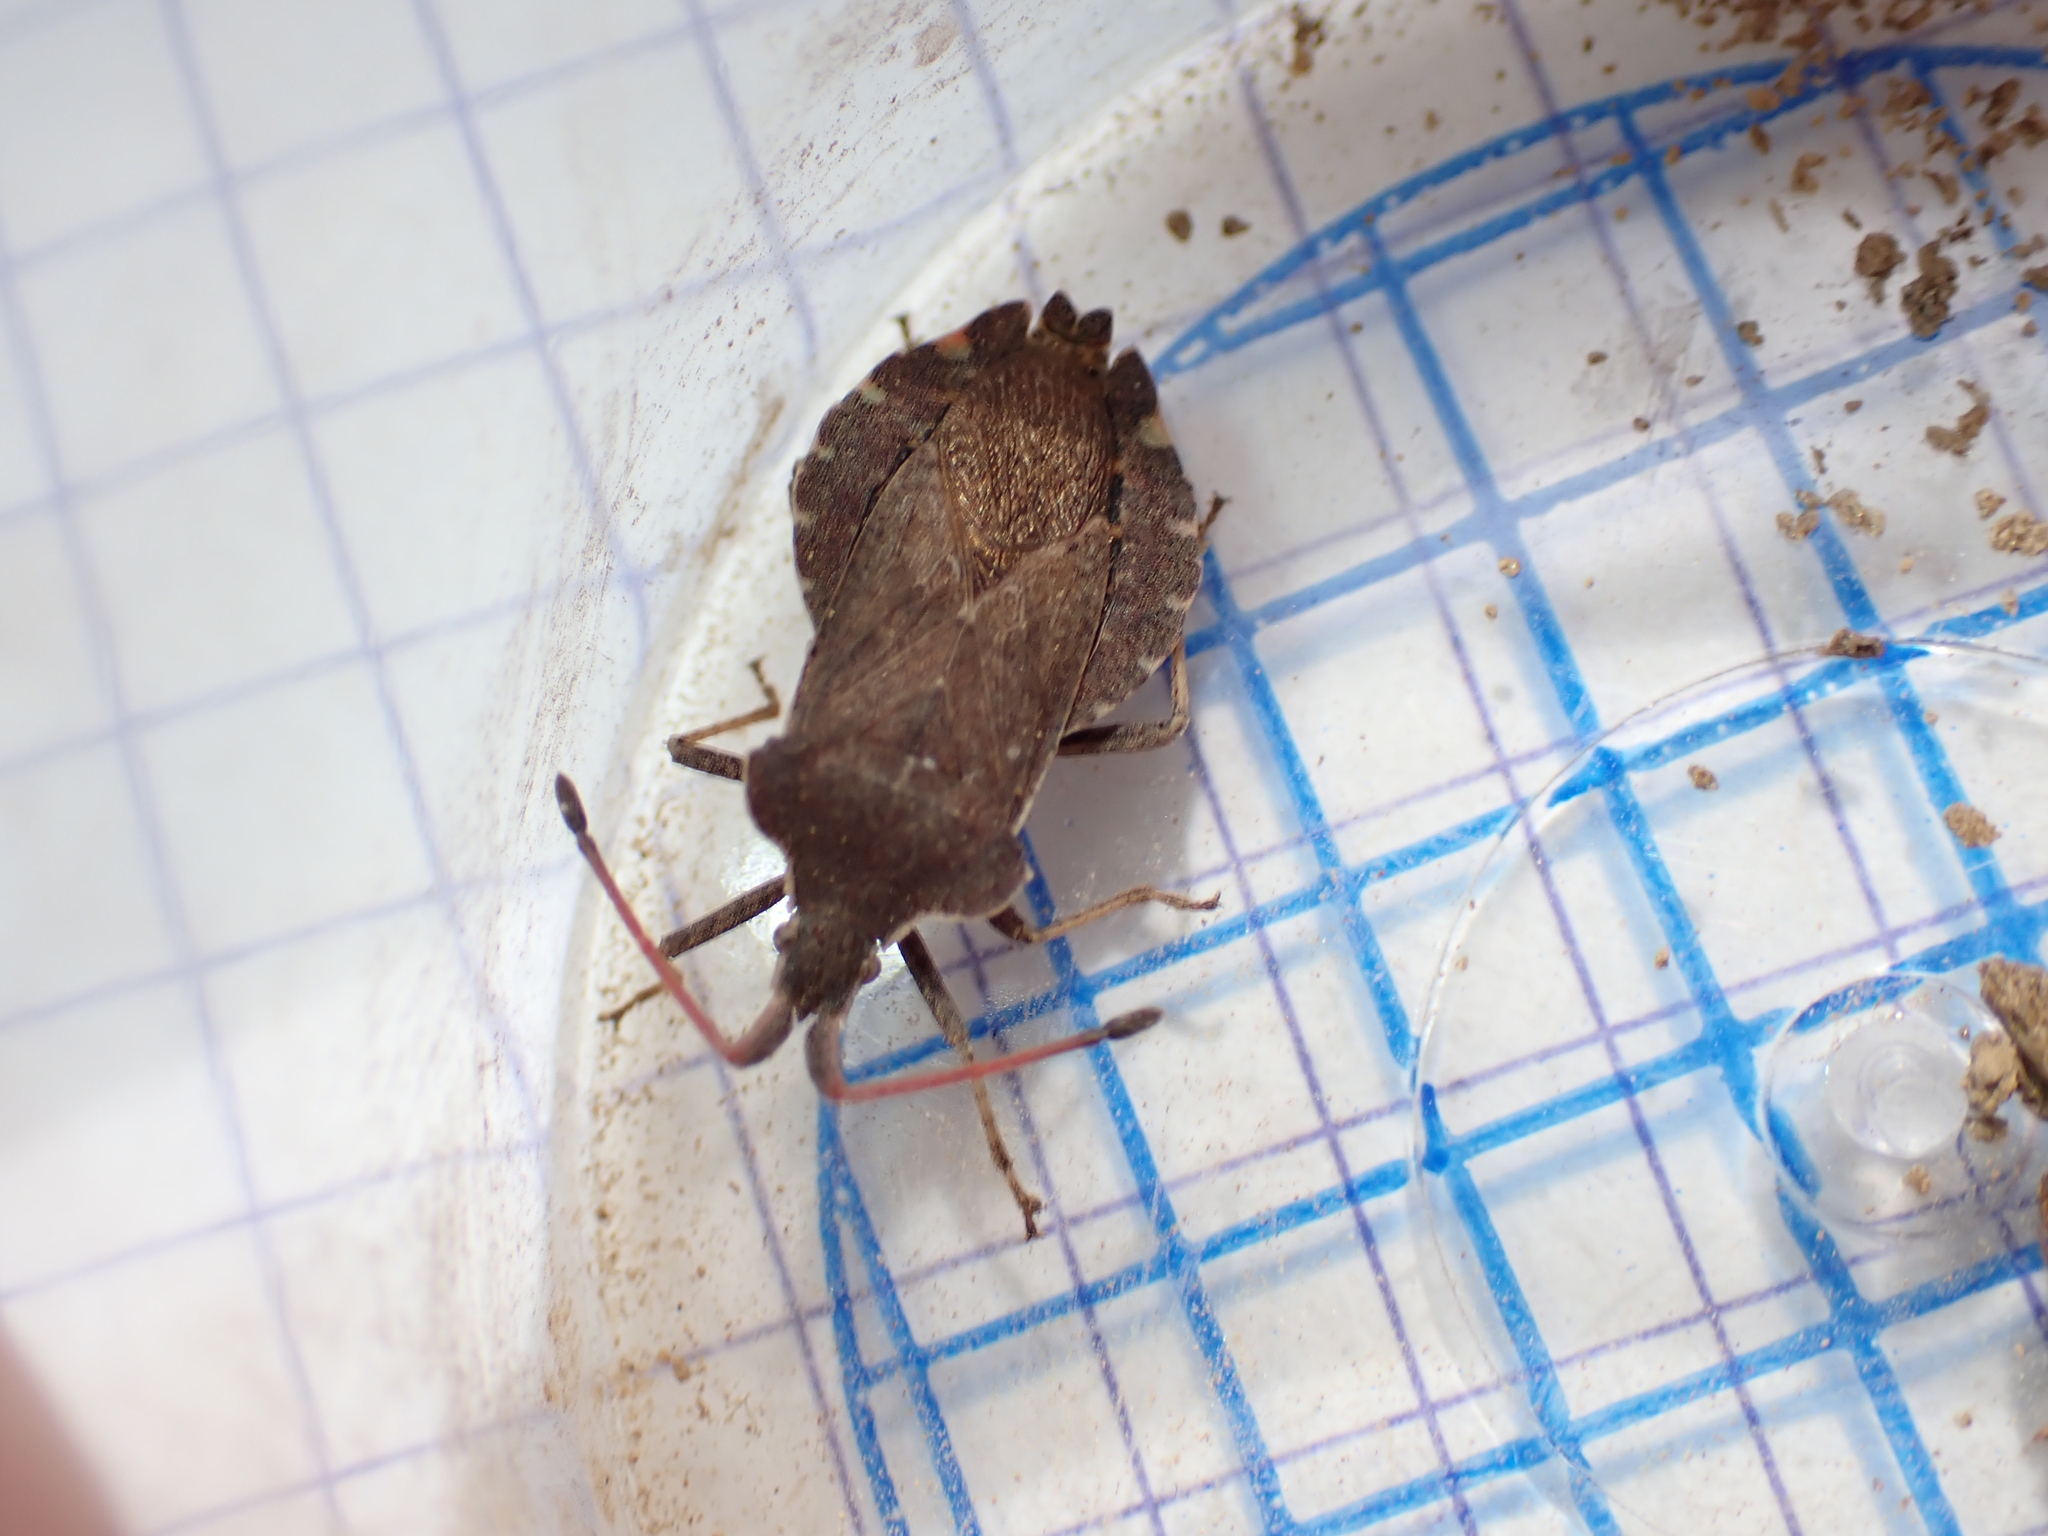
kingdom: Animalia
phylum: Arthropoda
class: Insecta
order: Hemiptera
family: Coreidae
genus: Enoplops
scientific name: Enoplops scapha
